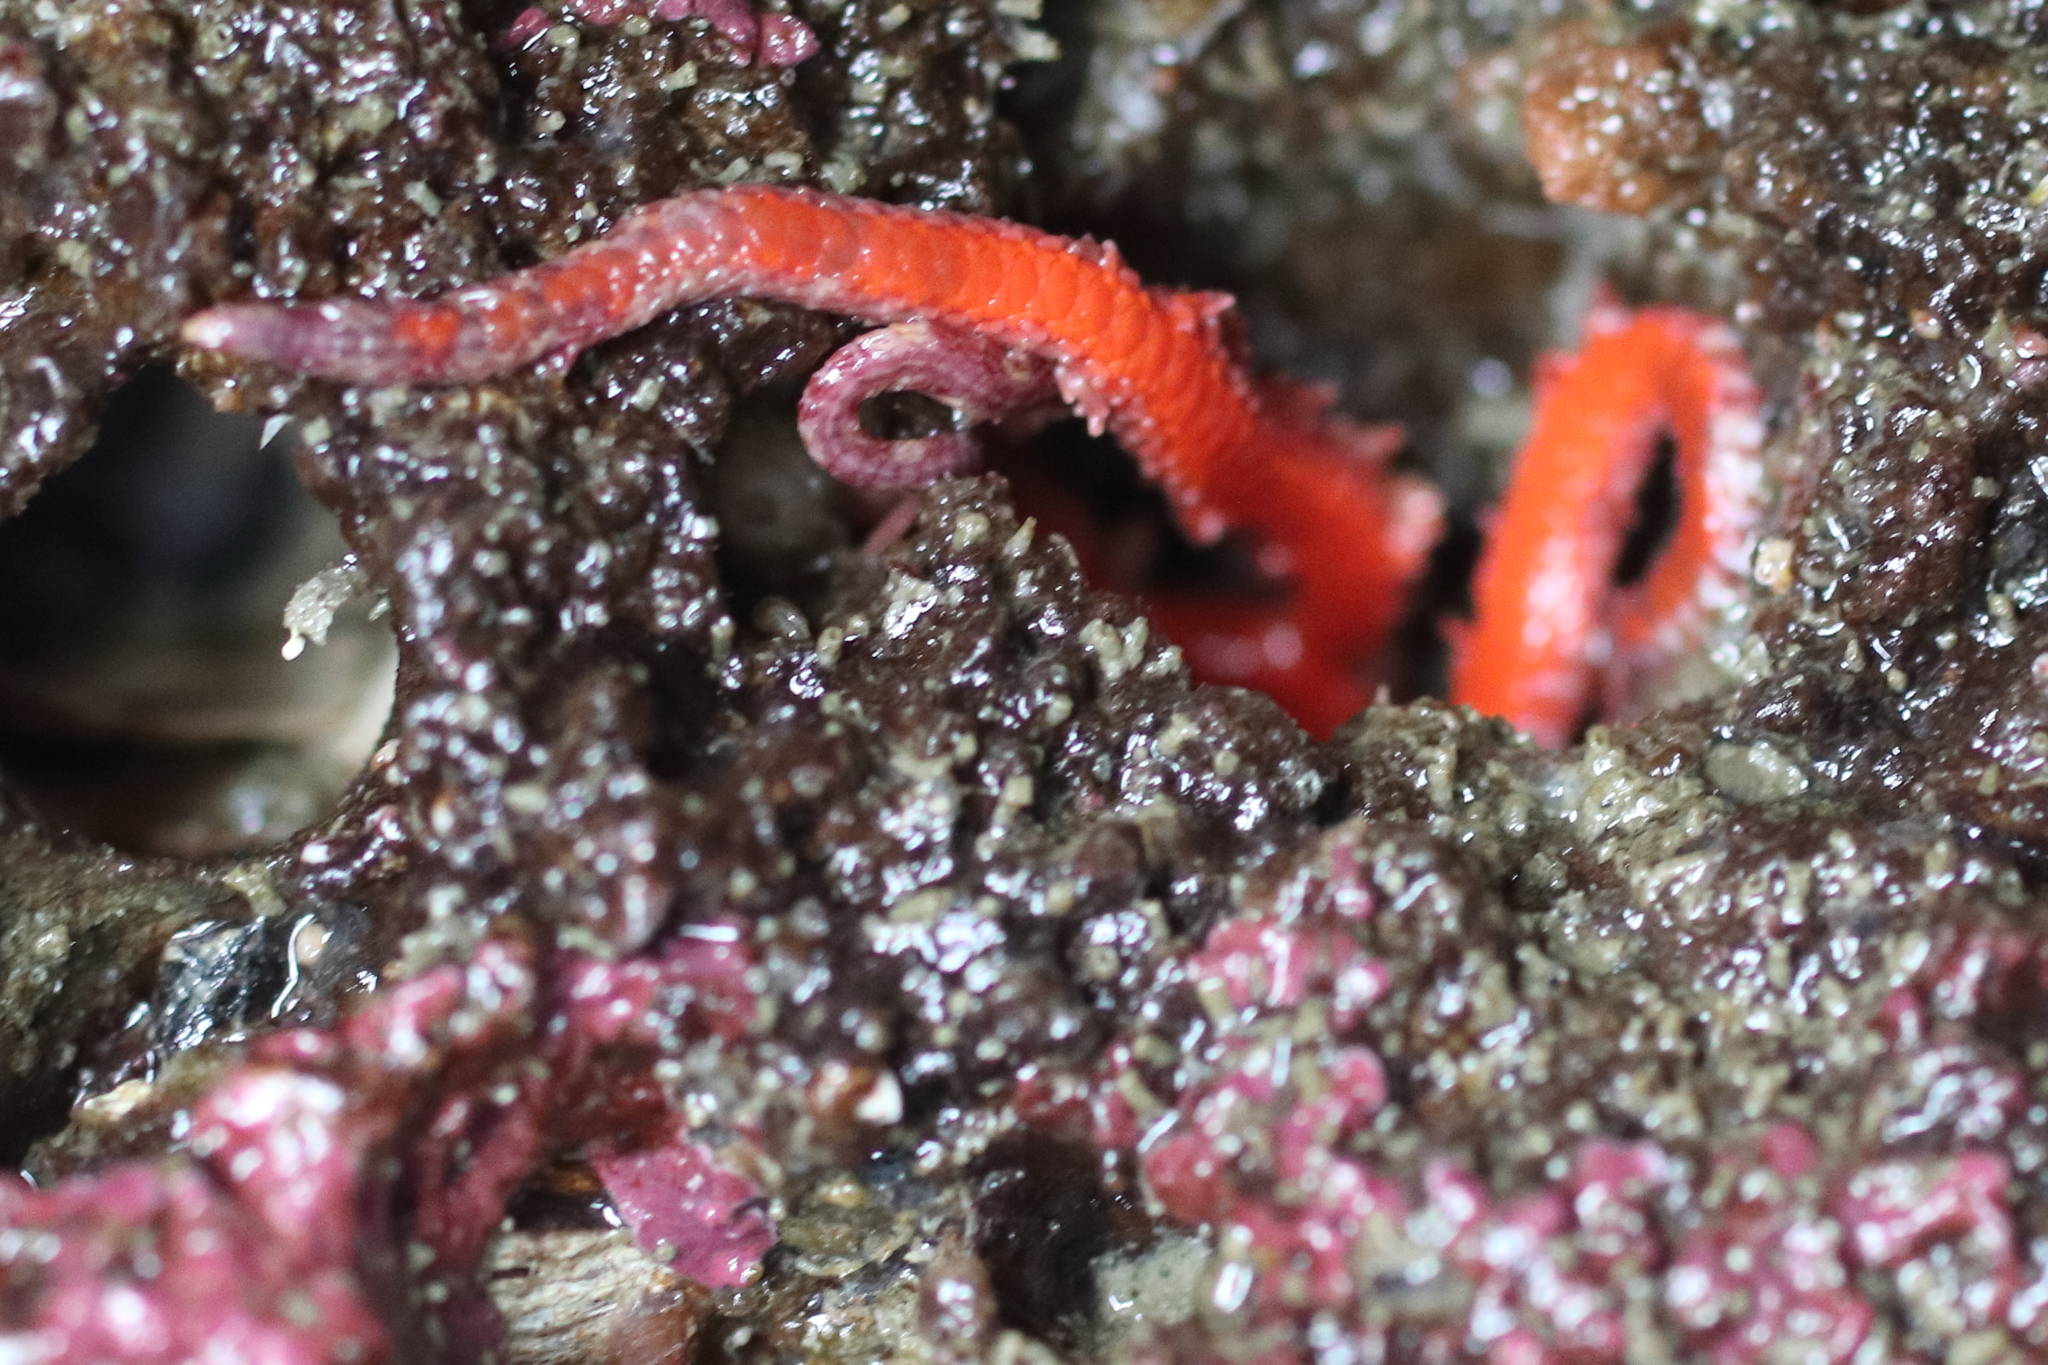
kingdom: Animalia
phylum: Echinodermata
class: Ophiuroidea
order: Amphilepidida
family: Ophiopholidae
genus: Ophiopholis
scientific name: Ophiopholis kennerlyi
